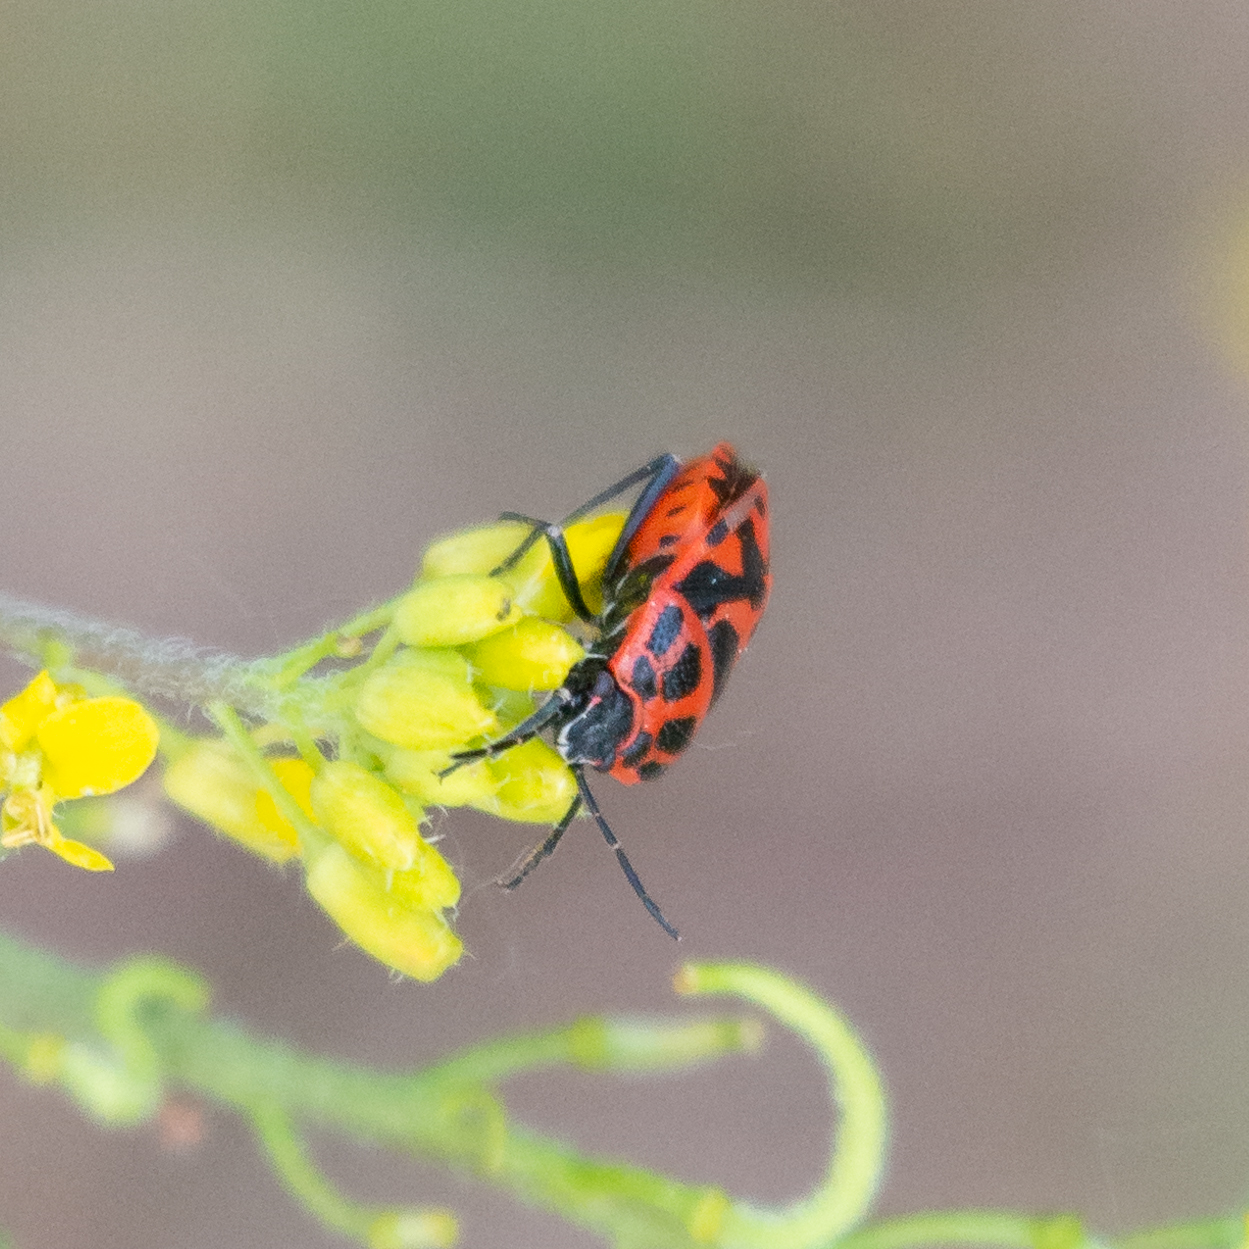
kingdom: Animalia
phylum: Arthropoda
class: Insecta
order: Hemiptera
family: Pentatomidae
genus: Eurydema
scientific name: Eurydema ornata
